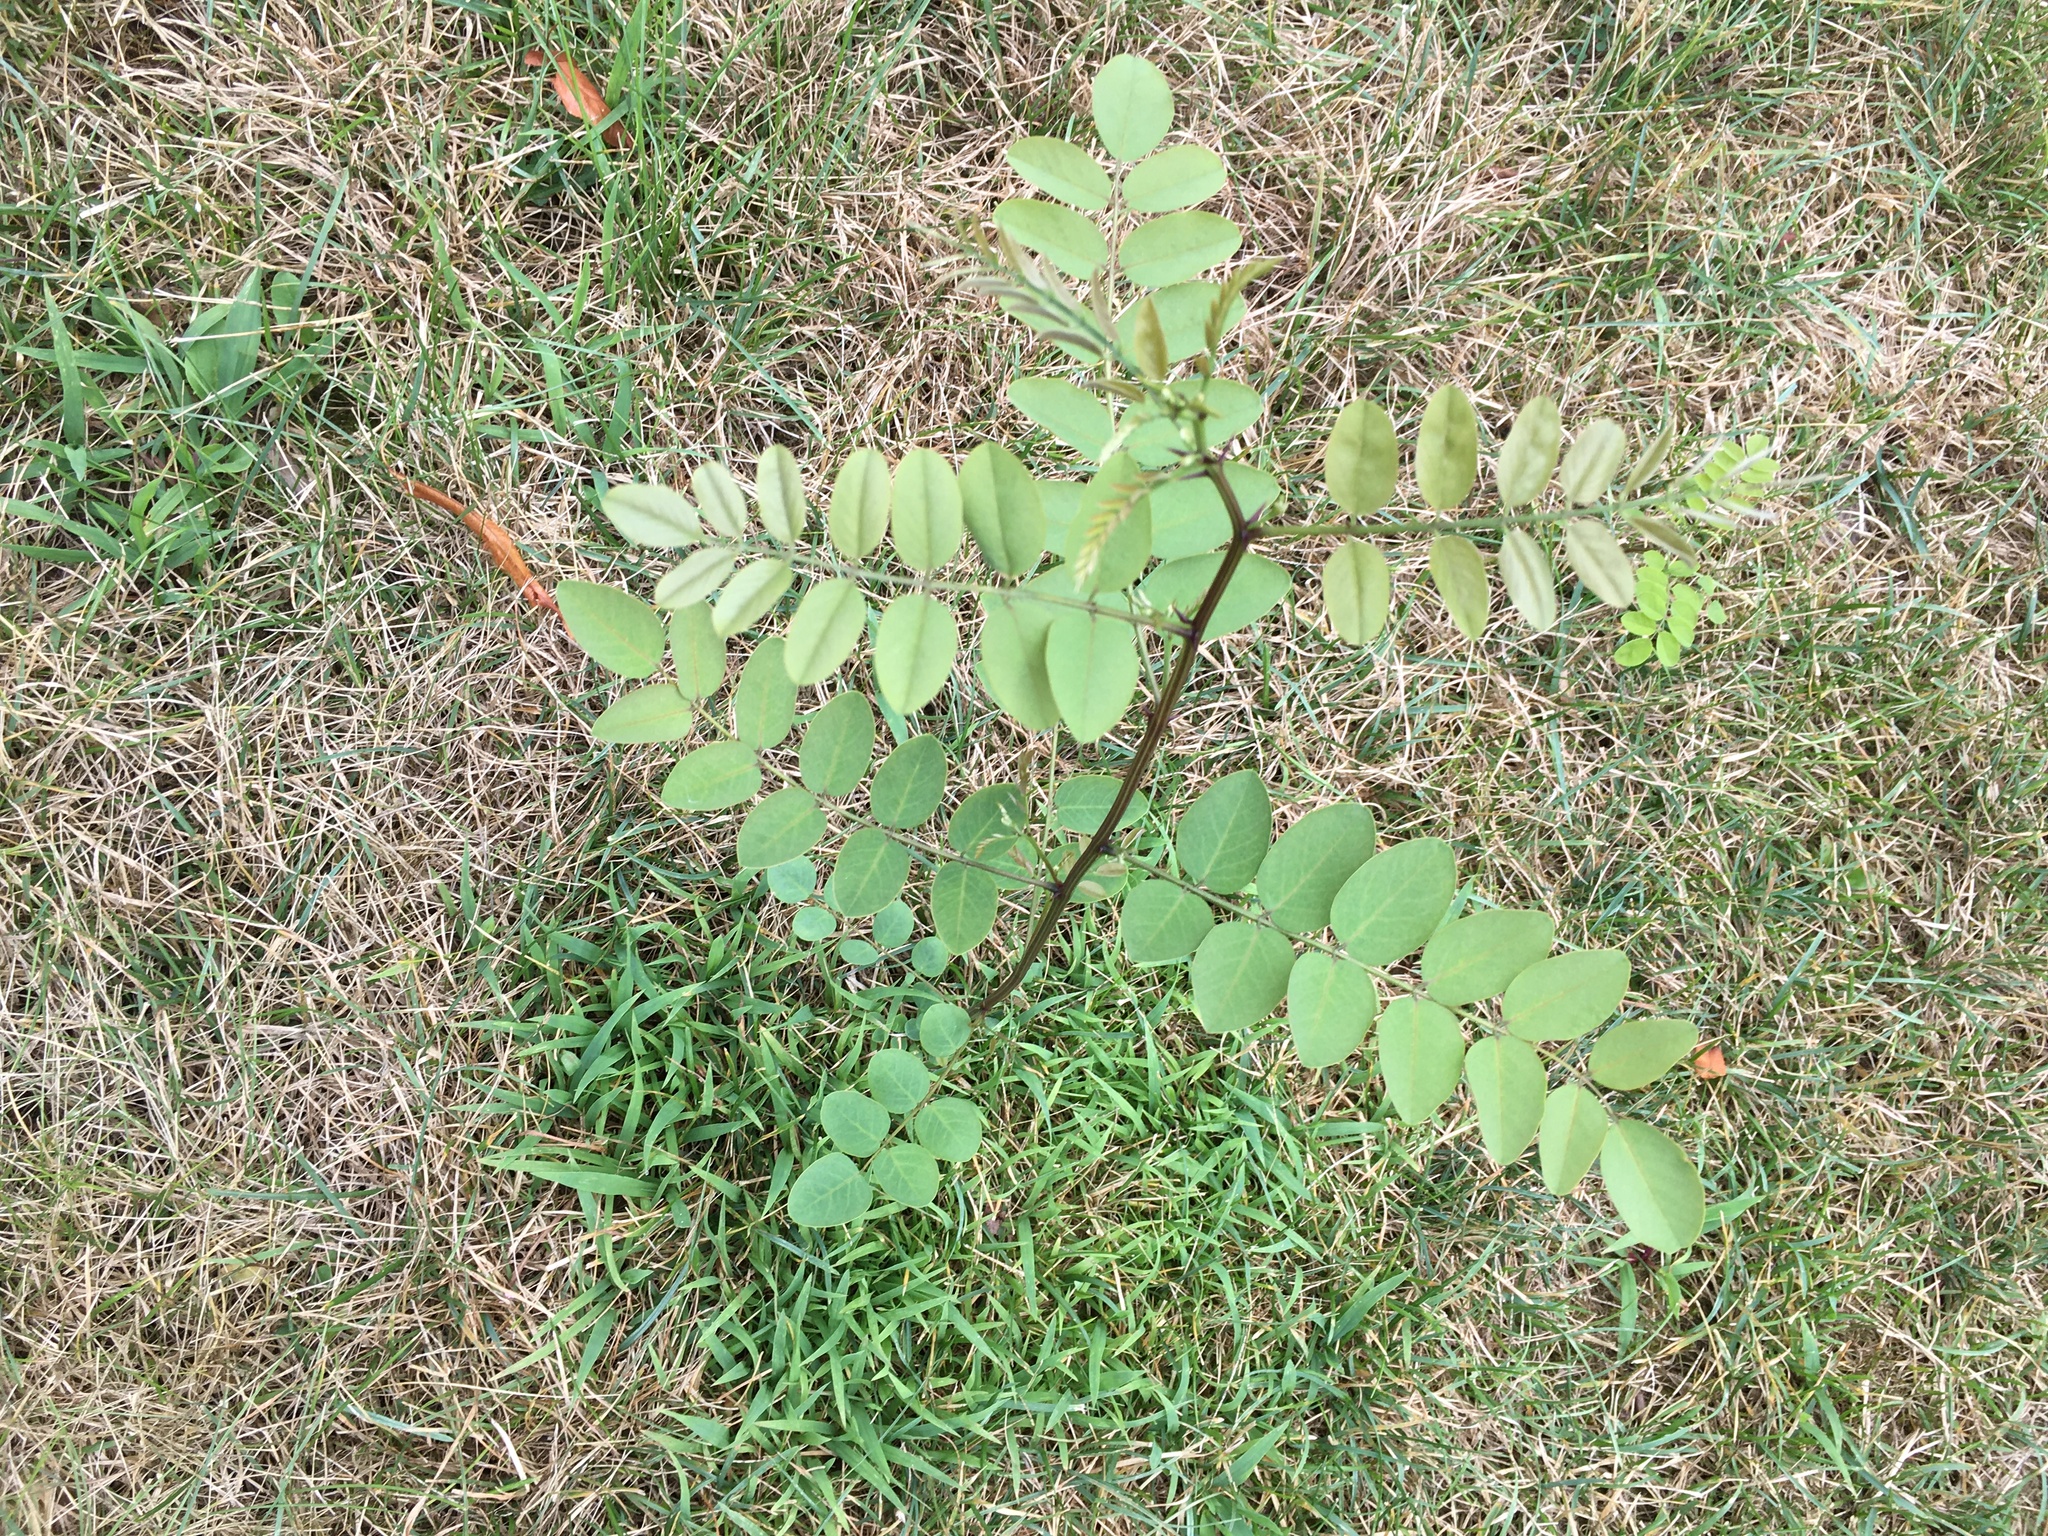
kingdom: Plantae
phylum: Tracheophyta
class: Magnoliopsida
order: Fabales
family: Fabaceae
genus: Robinia
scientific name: Robinia pseudoacacia
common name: Black locust
